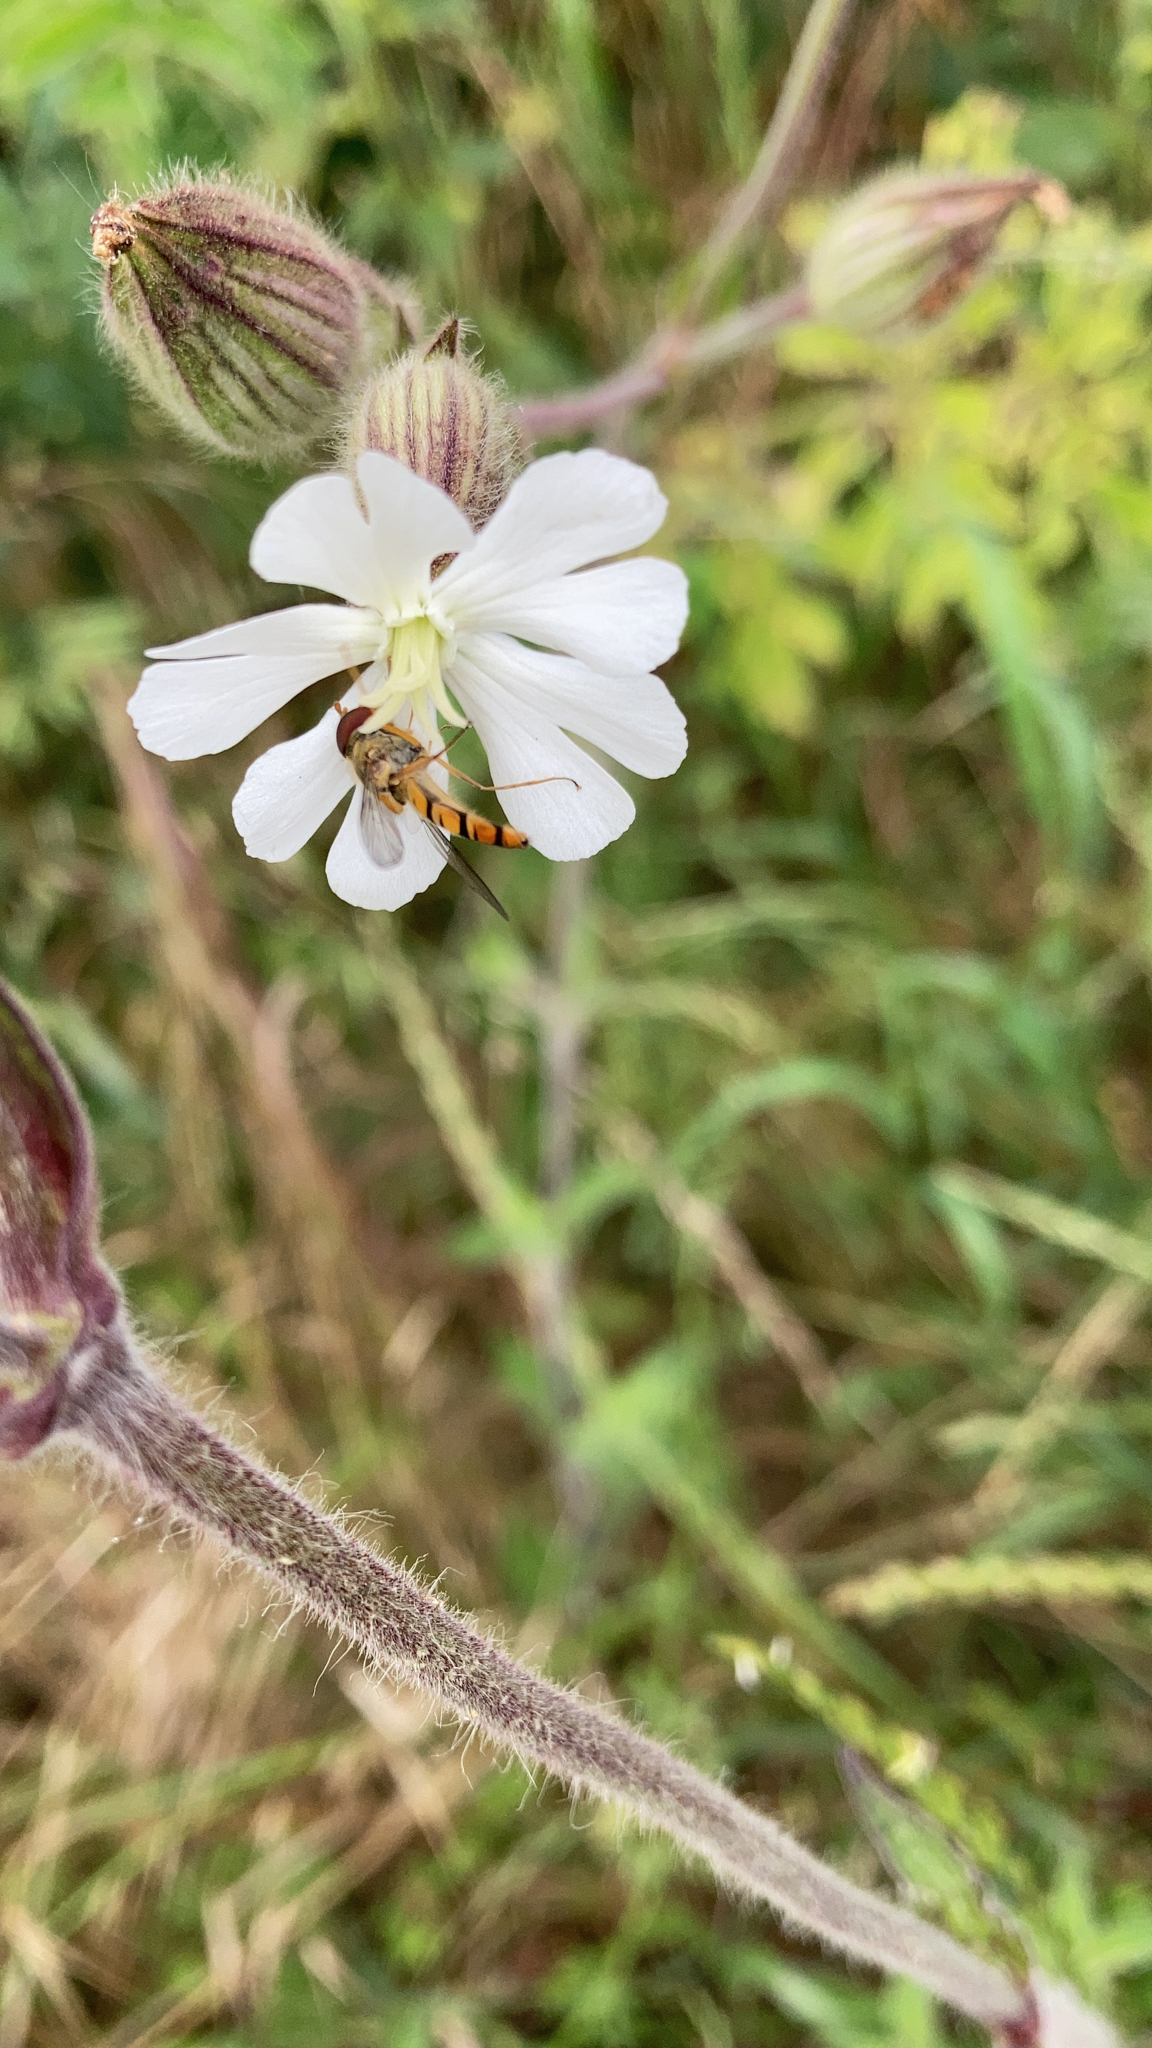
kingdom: Animalia
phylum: Arthropoda
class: Insecta
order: Diptera
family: Syrphidae
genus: Episyrphus
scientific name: Episyrphus balteatus
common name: Marmalade hoverfly
